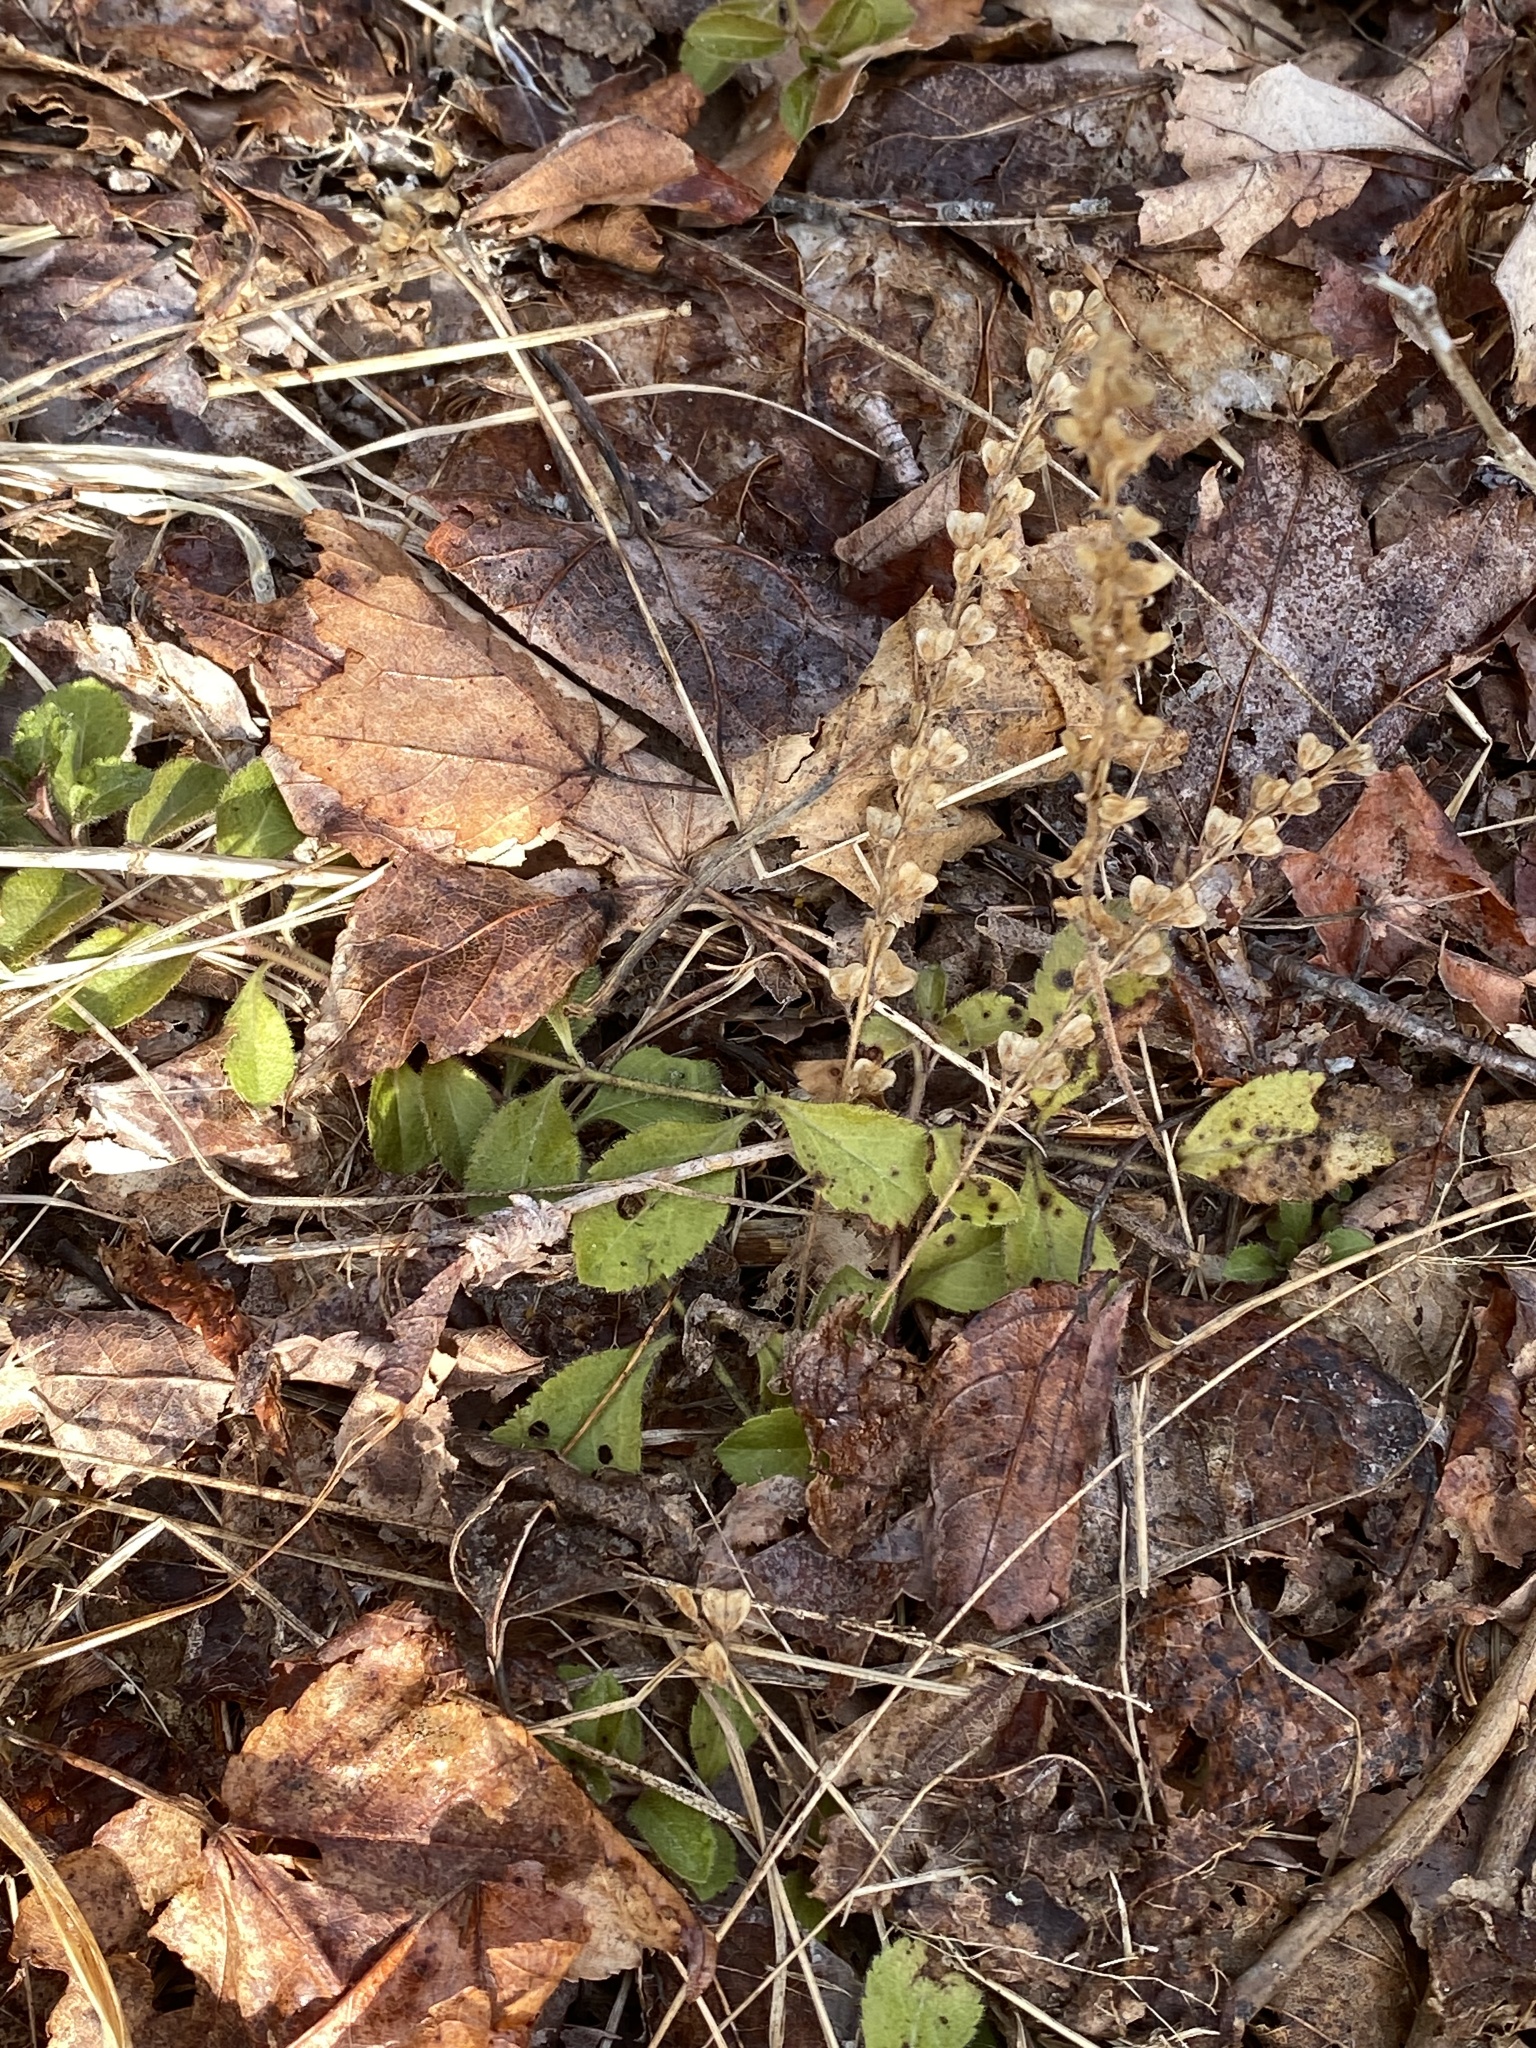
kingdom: Plantae
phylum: Tracheophyta
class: Magnoliopsida
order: Lamiales
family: Plantaginaceae
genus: Veronica
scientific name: Veronica officinalis
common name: Common speedwell
